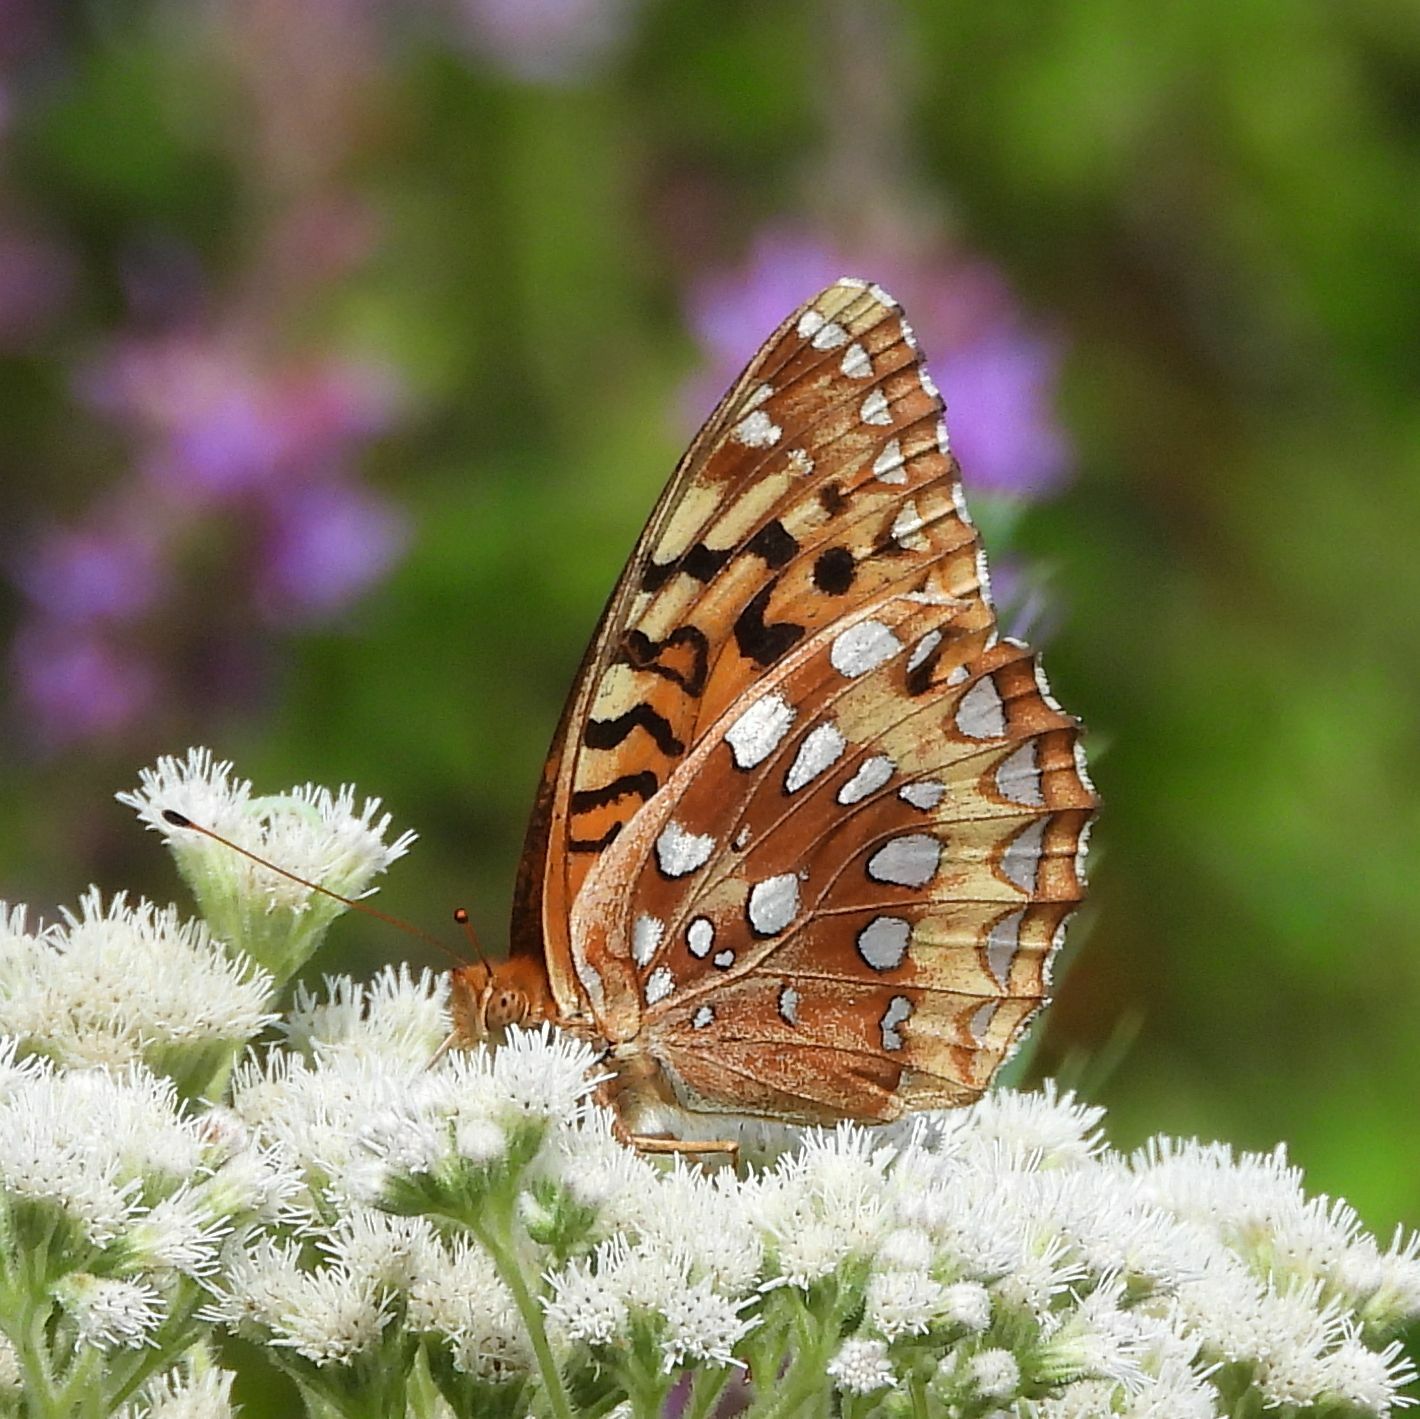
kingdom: Animalia
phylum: Arthropoda
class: Insecta
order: Lepidoptera
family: Nymphalidae
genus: Speyeria
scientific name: Speyeria cybele
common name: Great spangled fritillary
